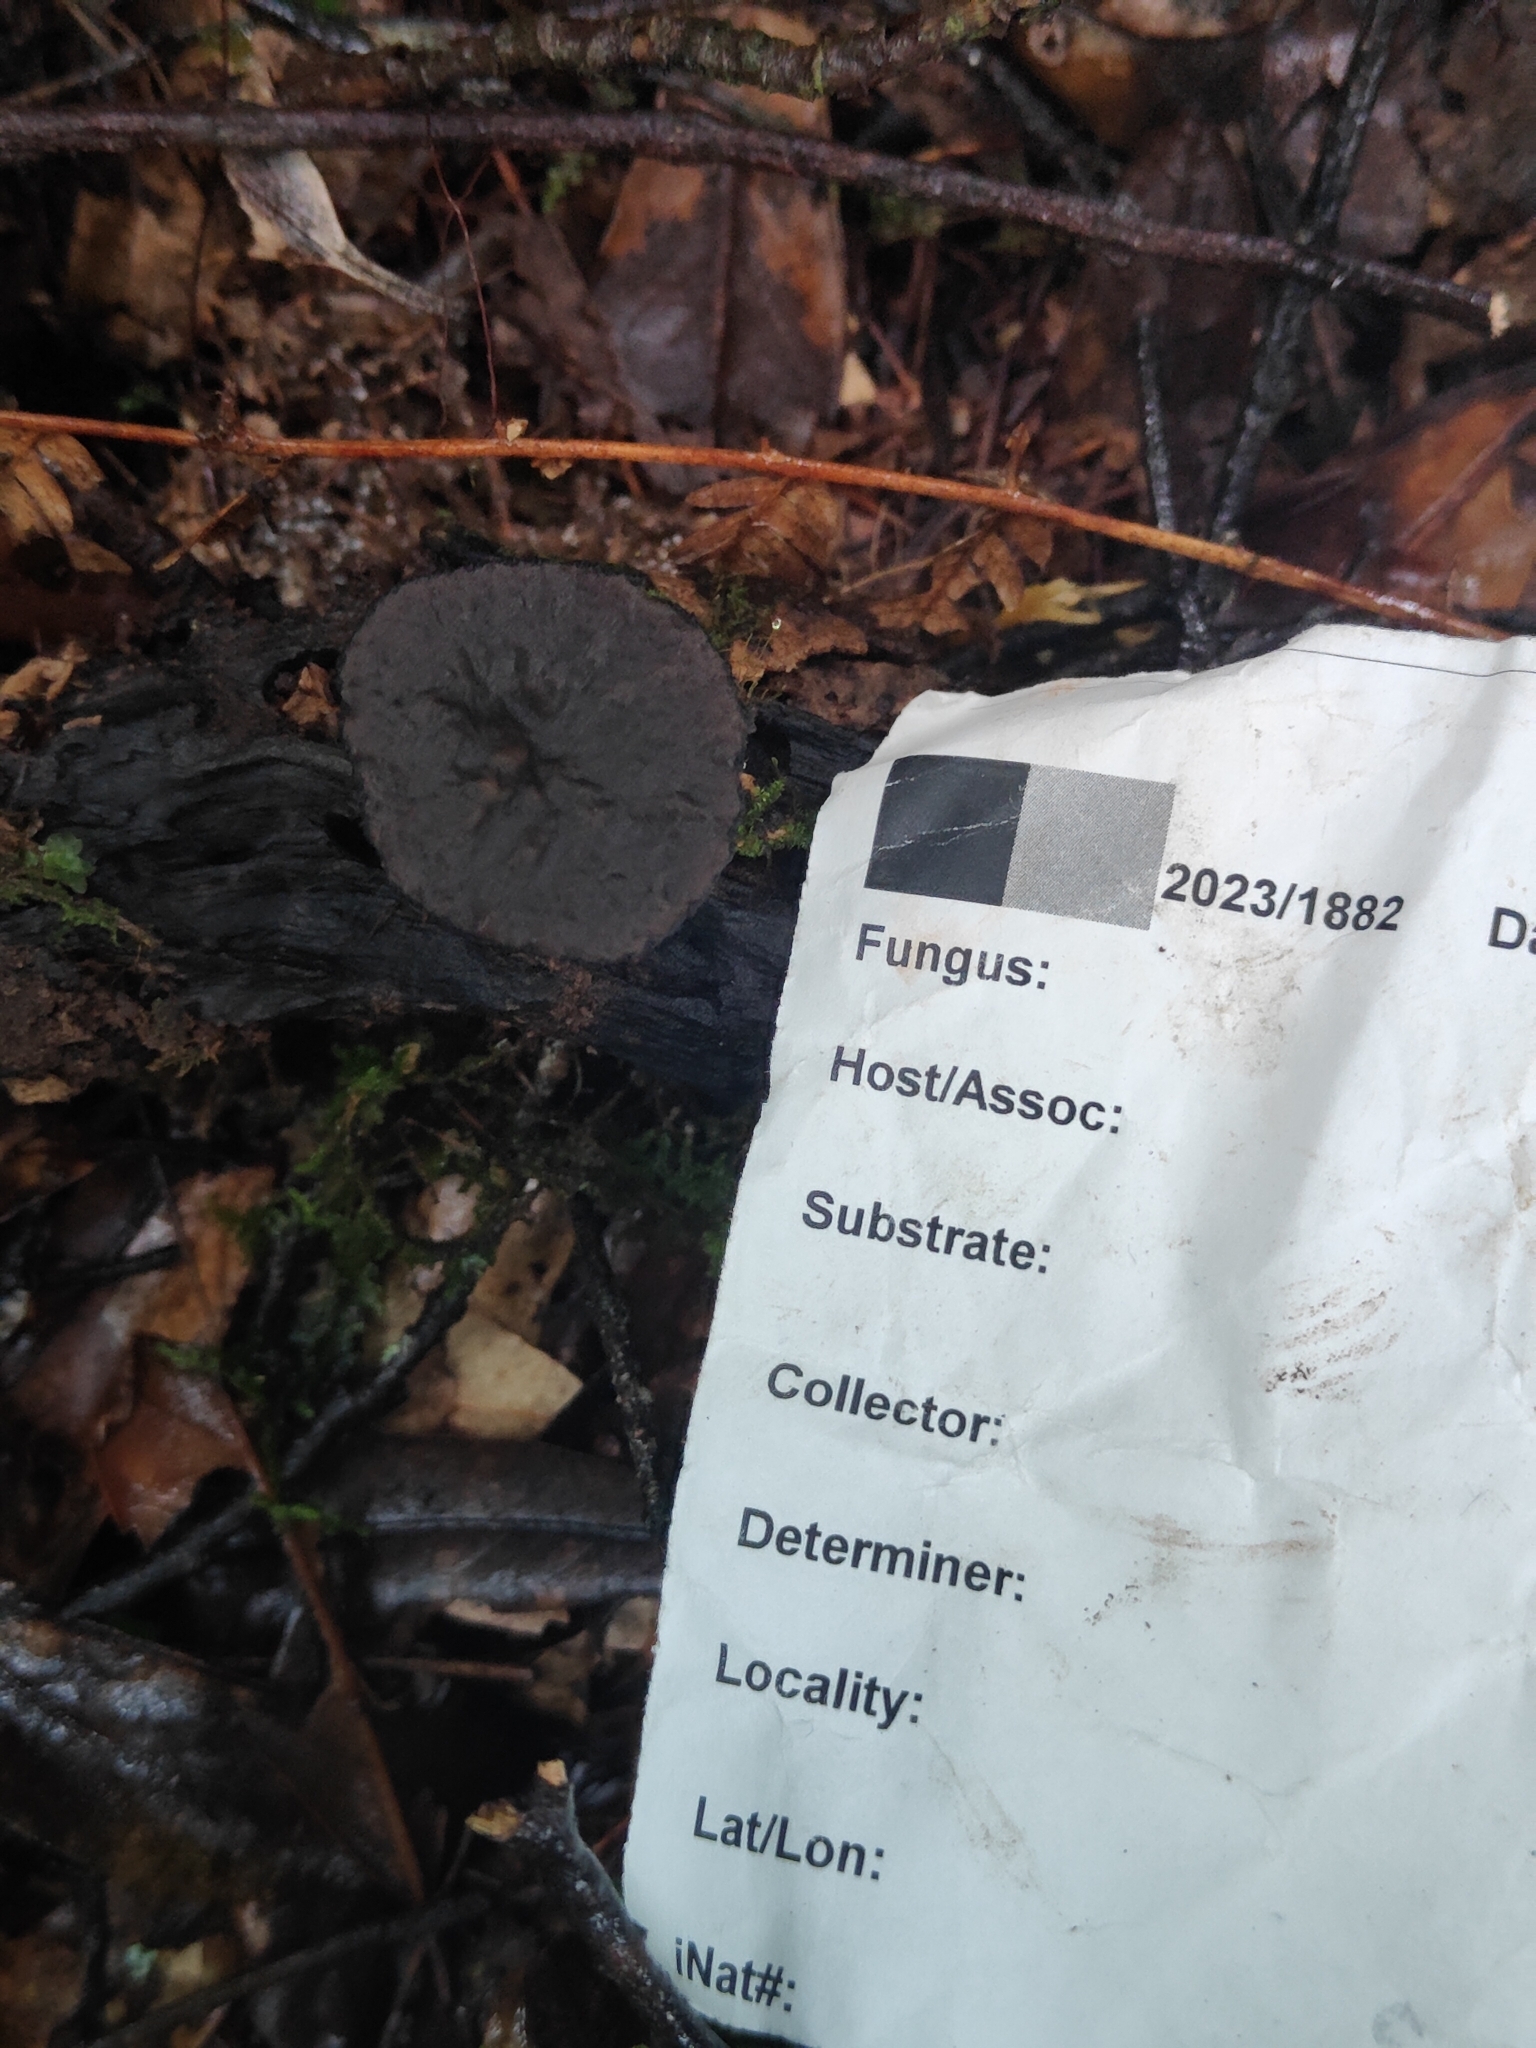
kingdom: Fungi
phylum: Ascomycota
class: Pezizomycetes
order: Pezizales
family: Sarcosomataceae
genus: Plectania
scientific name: Plectania rhytidia
